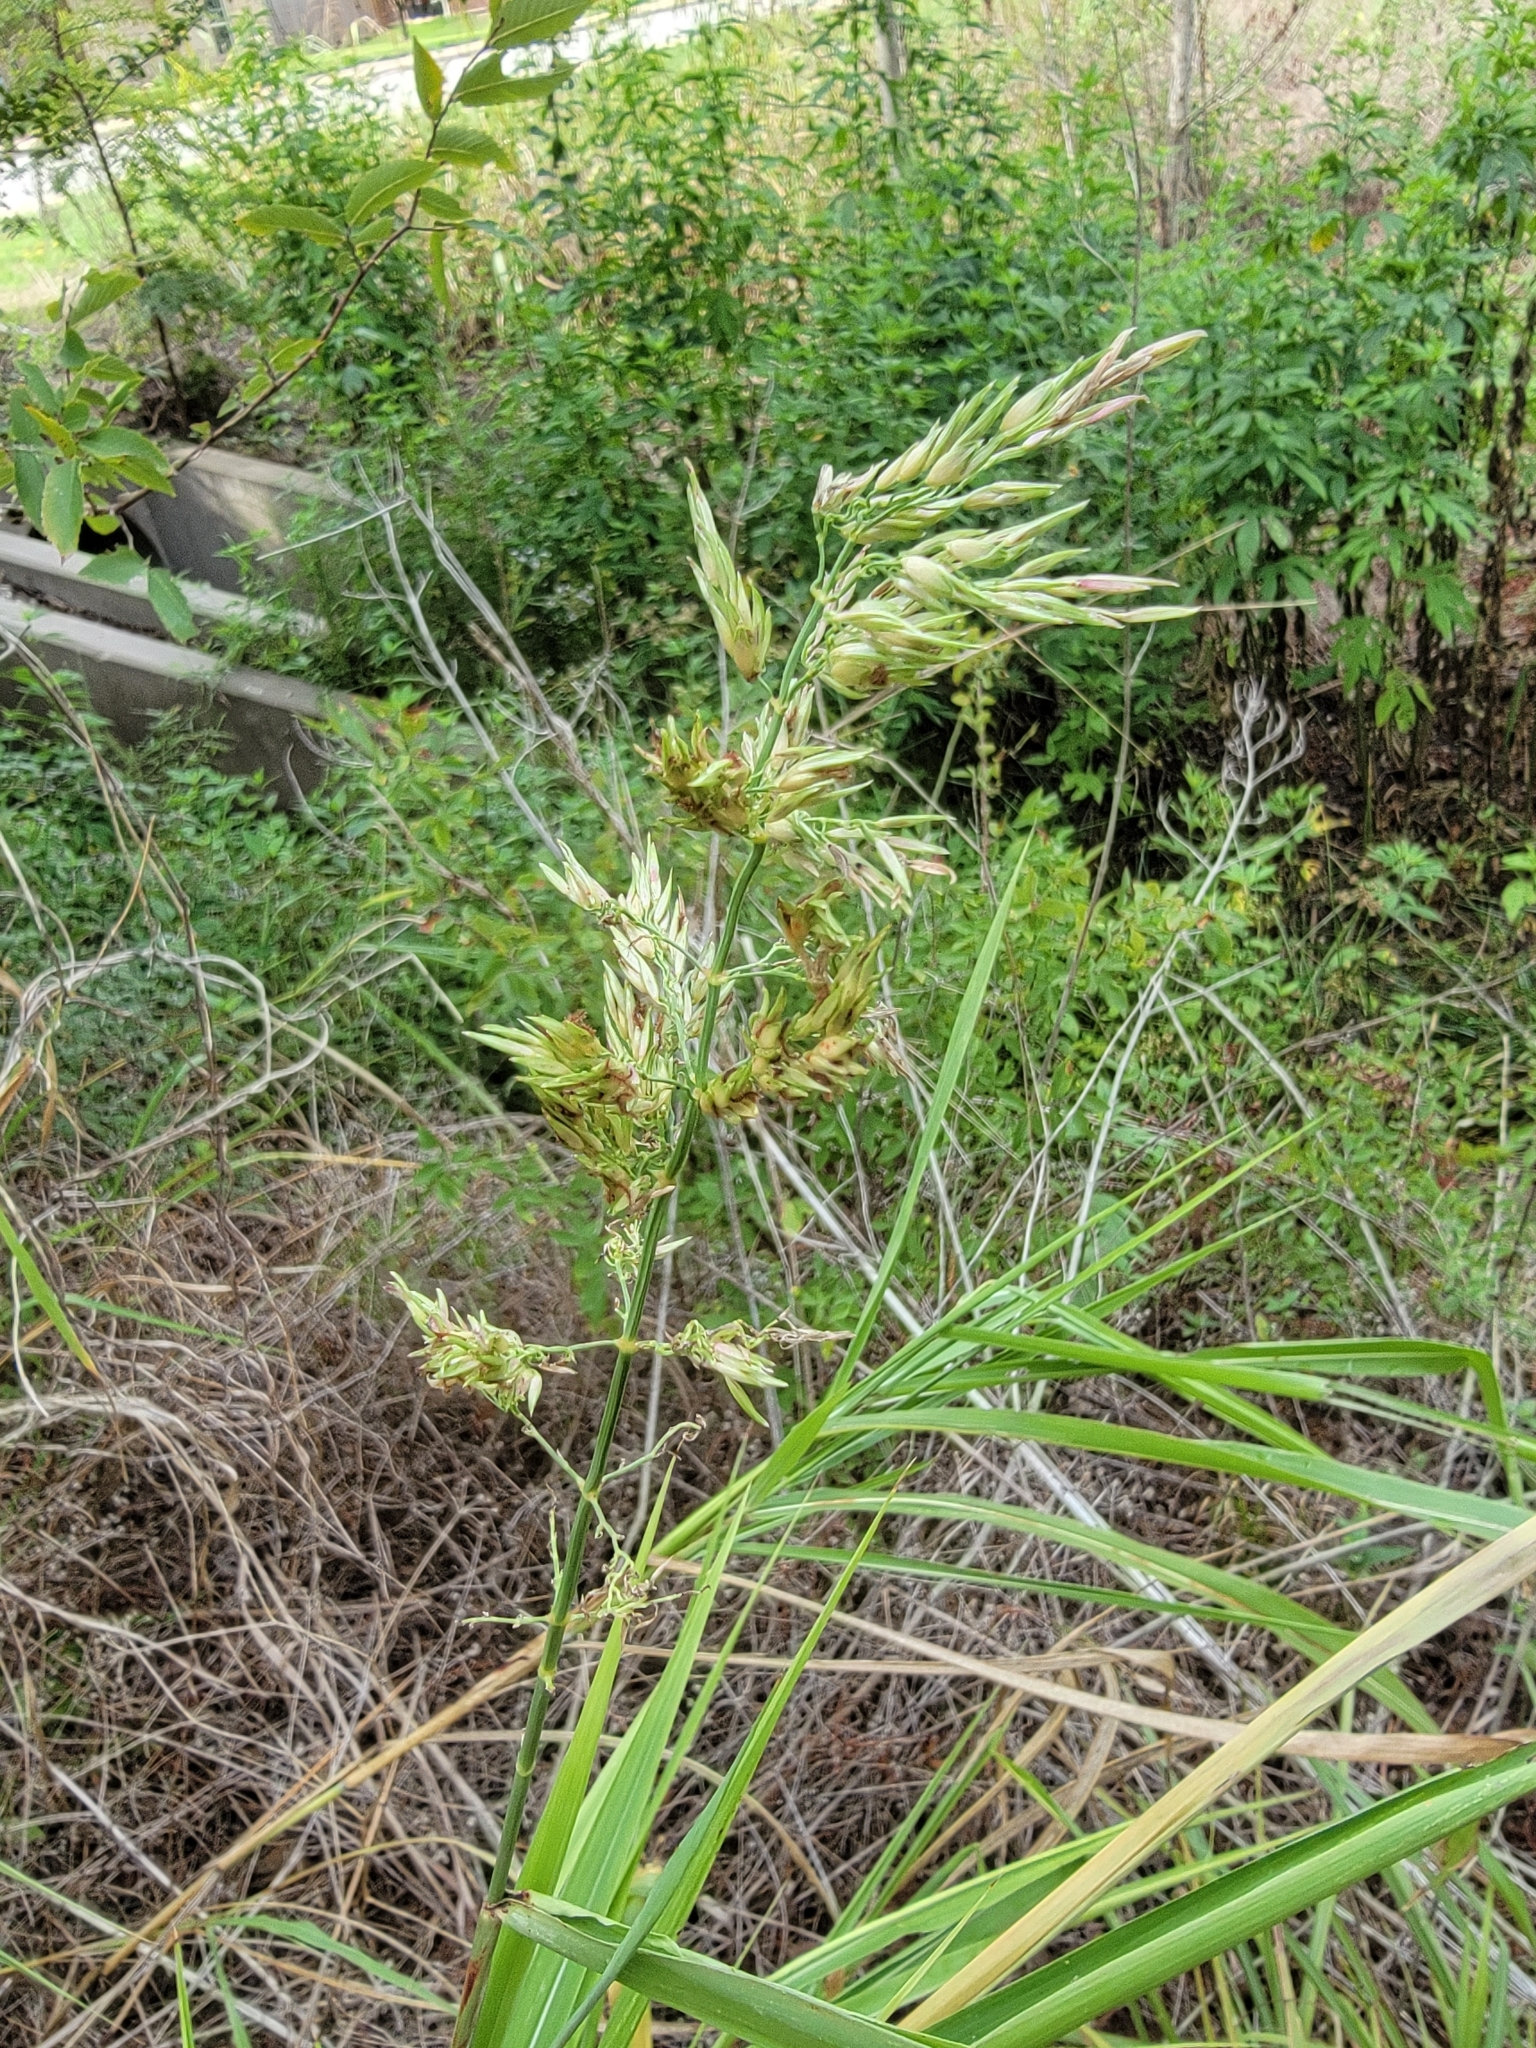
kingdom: Plantae
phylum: Tracheophyta
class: Liliopsida
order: Poales
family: Poaceae
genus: Sorghum
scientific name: Sorghum halepense
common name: Johnson-grass
